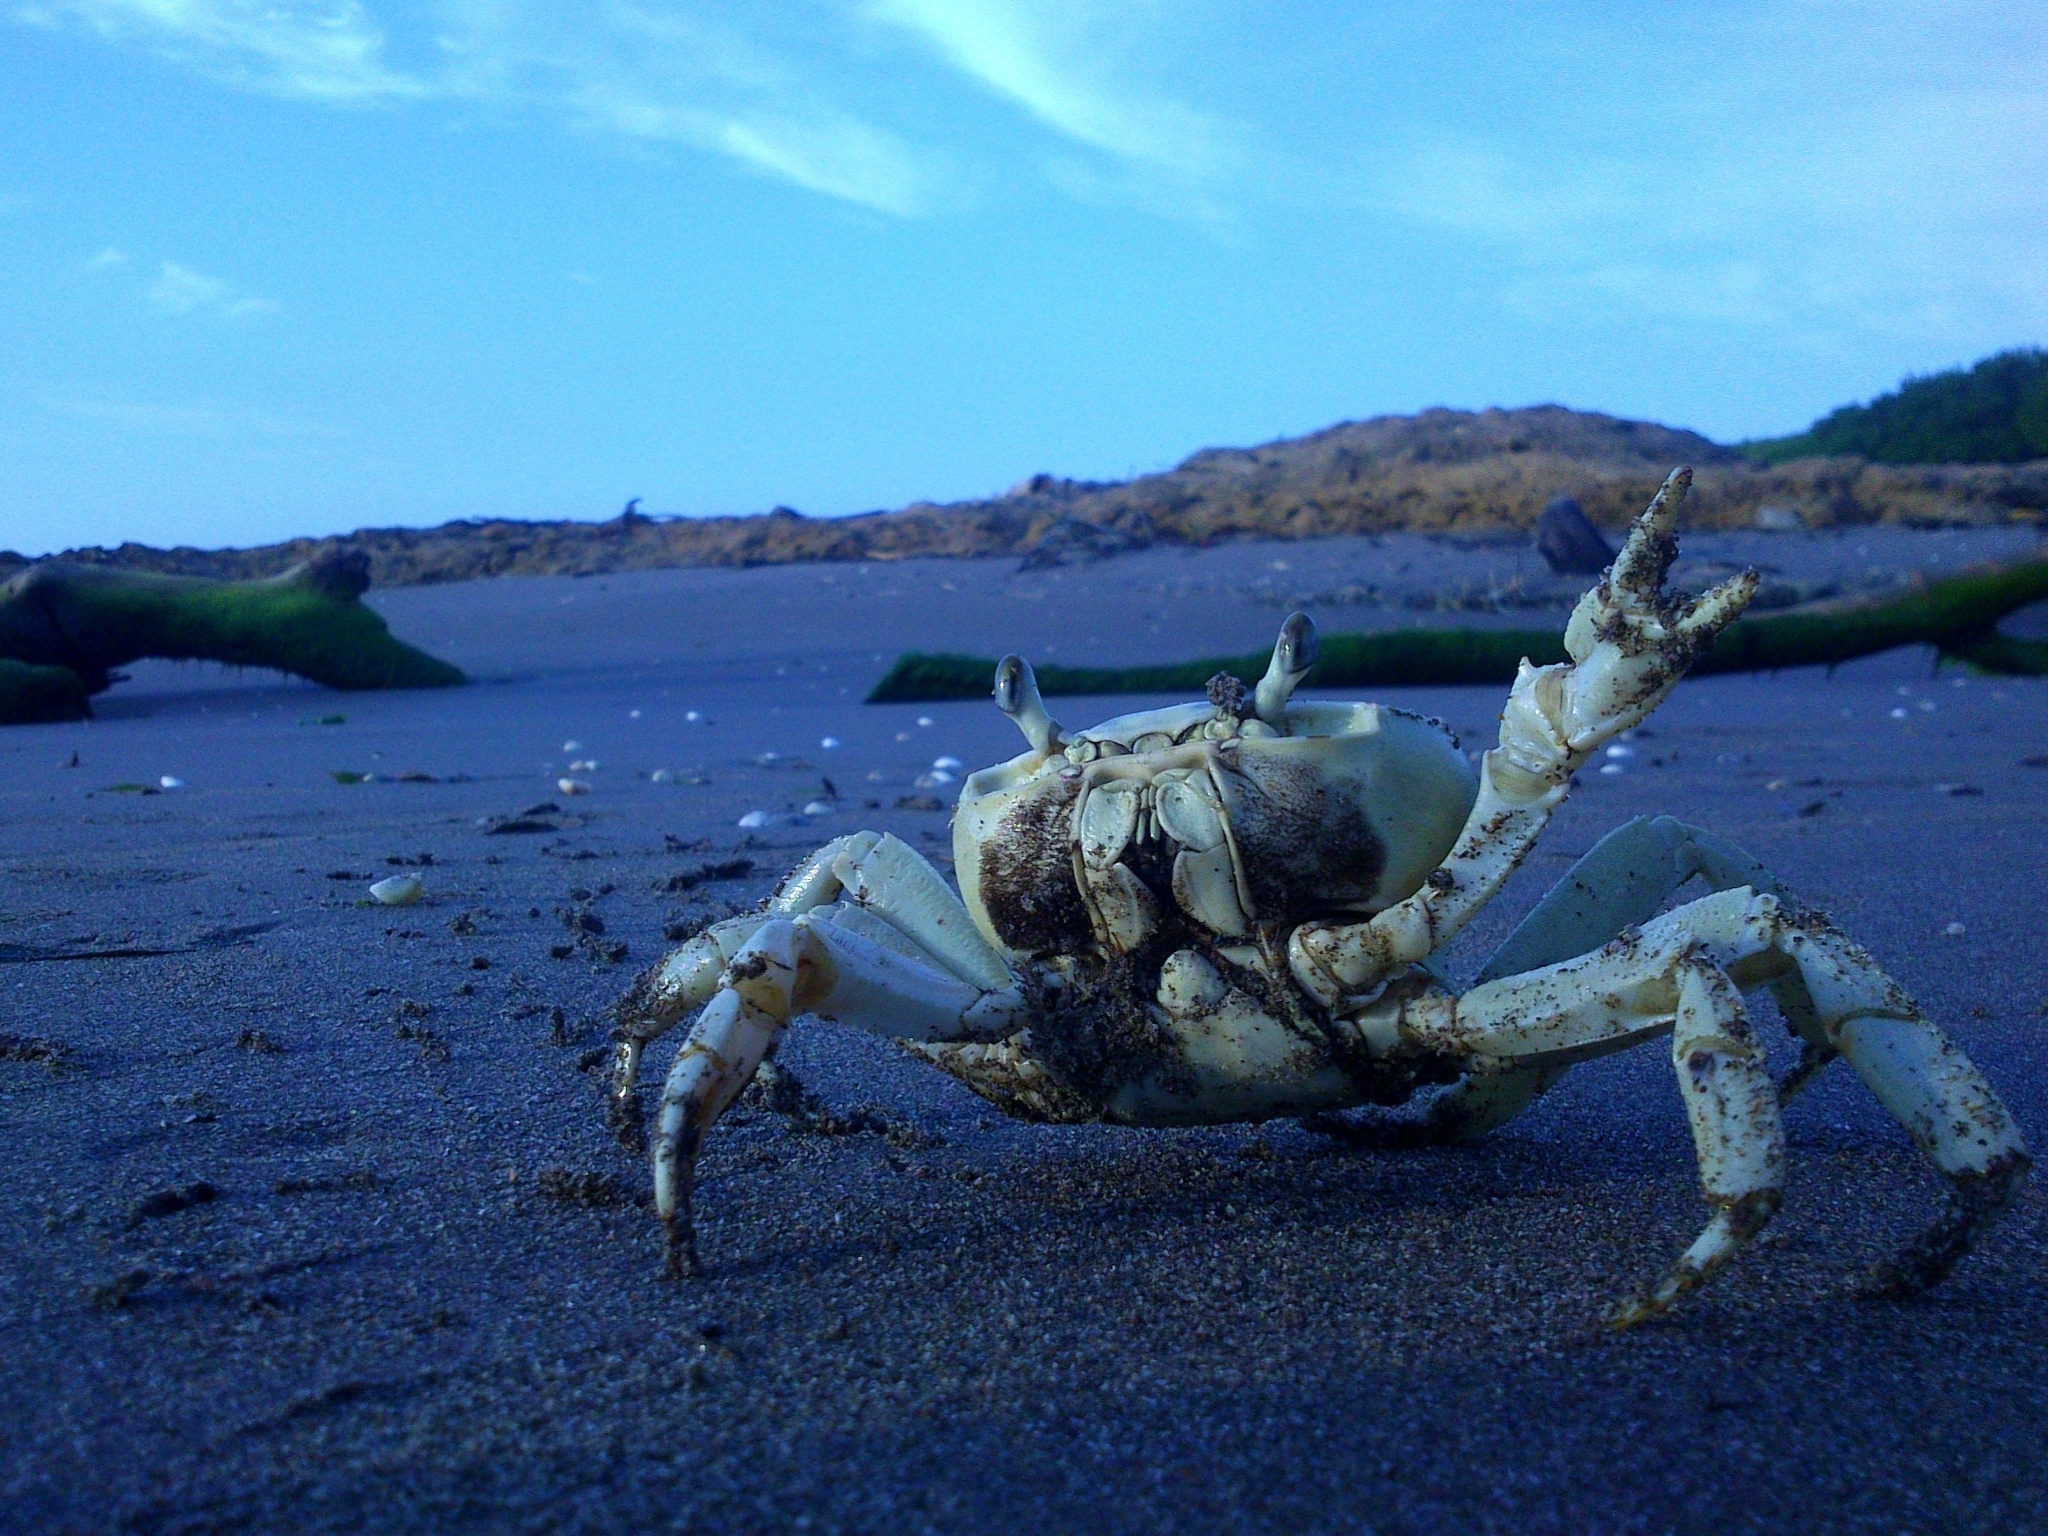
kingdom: Animalia
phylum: Arthropoda
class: Malacostraca
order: Decapoda
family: Gecarcinidae
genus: Cardisoma
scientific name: Cardisoma guanhumi
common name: Great land crab
